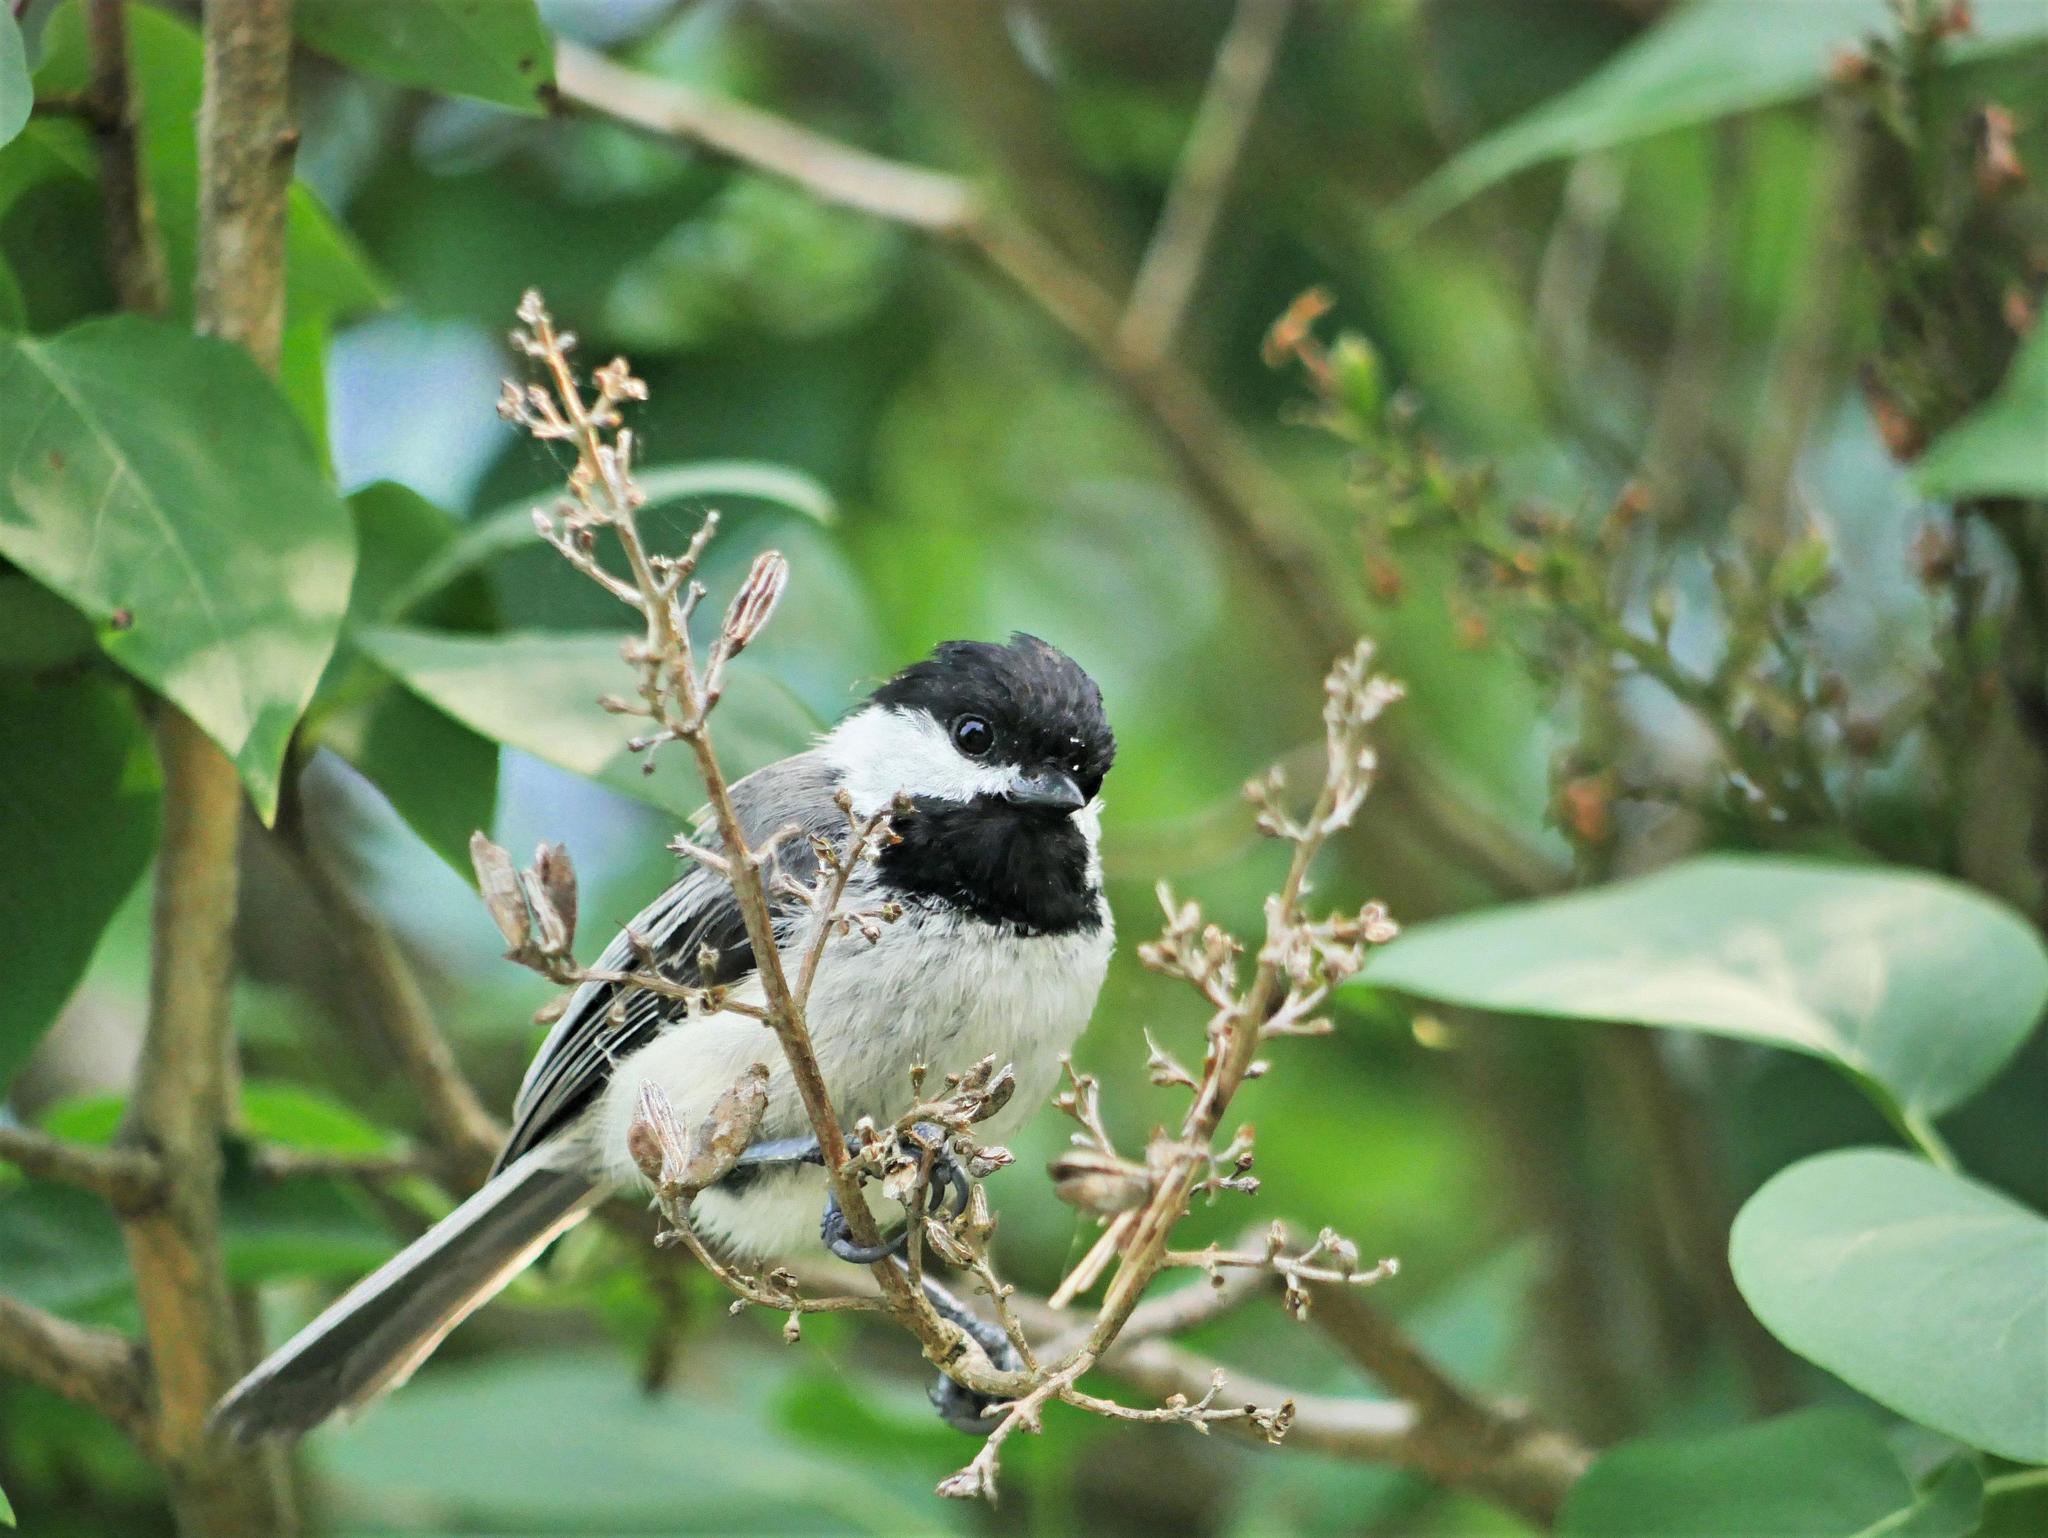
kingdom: Animalia
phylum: Chordata
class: Aves
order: Passeriformes
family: Paridae
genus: Poecile
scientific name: Poecile atricapillus
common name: Black-capped chickadee
